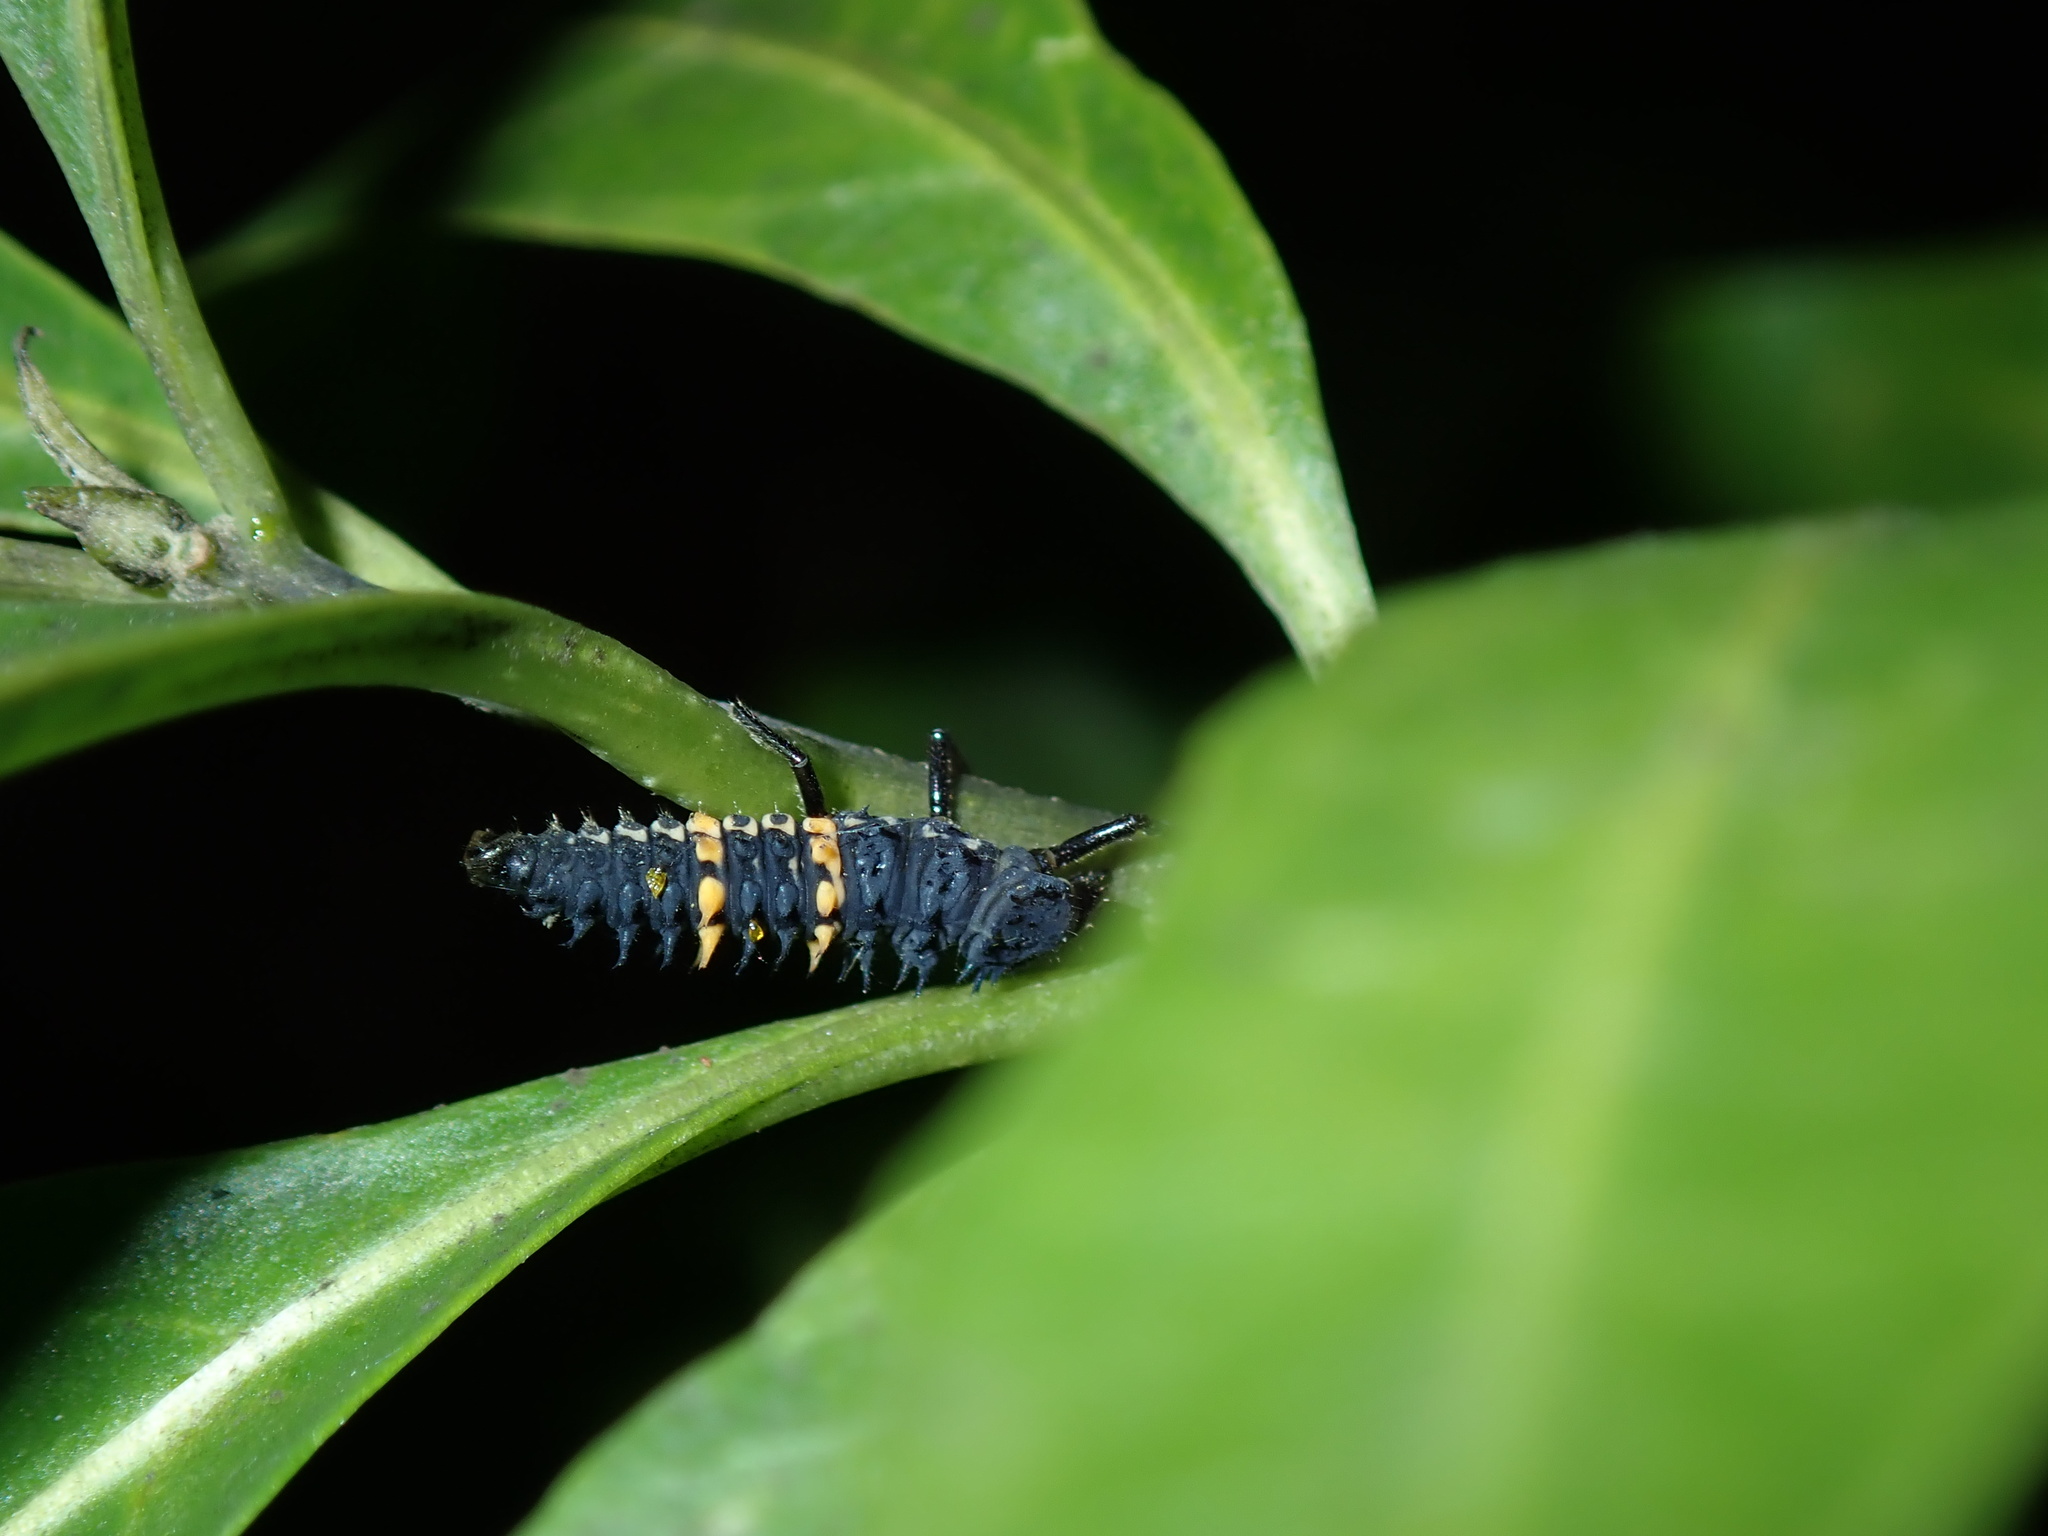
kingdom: Animalia
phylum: Arthropoda
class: Insecta
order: Coleoptera
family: Coccinellidae
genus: Harmonia
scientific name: Harmonia conformis
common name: Common spotted ladybird beetle
